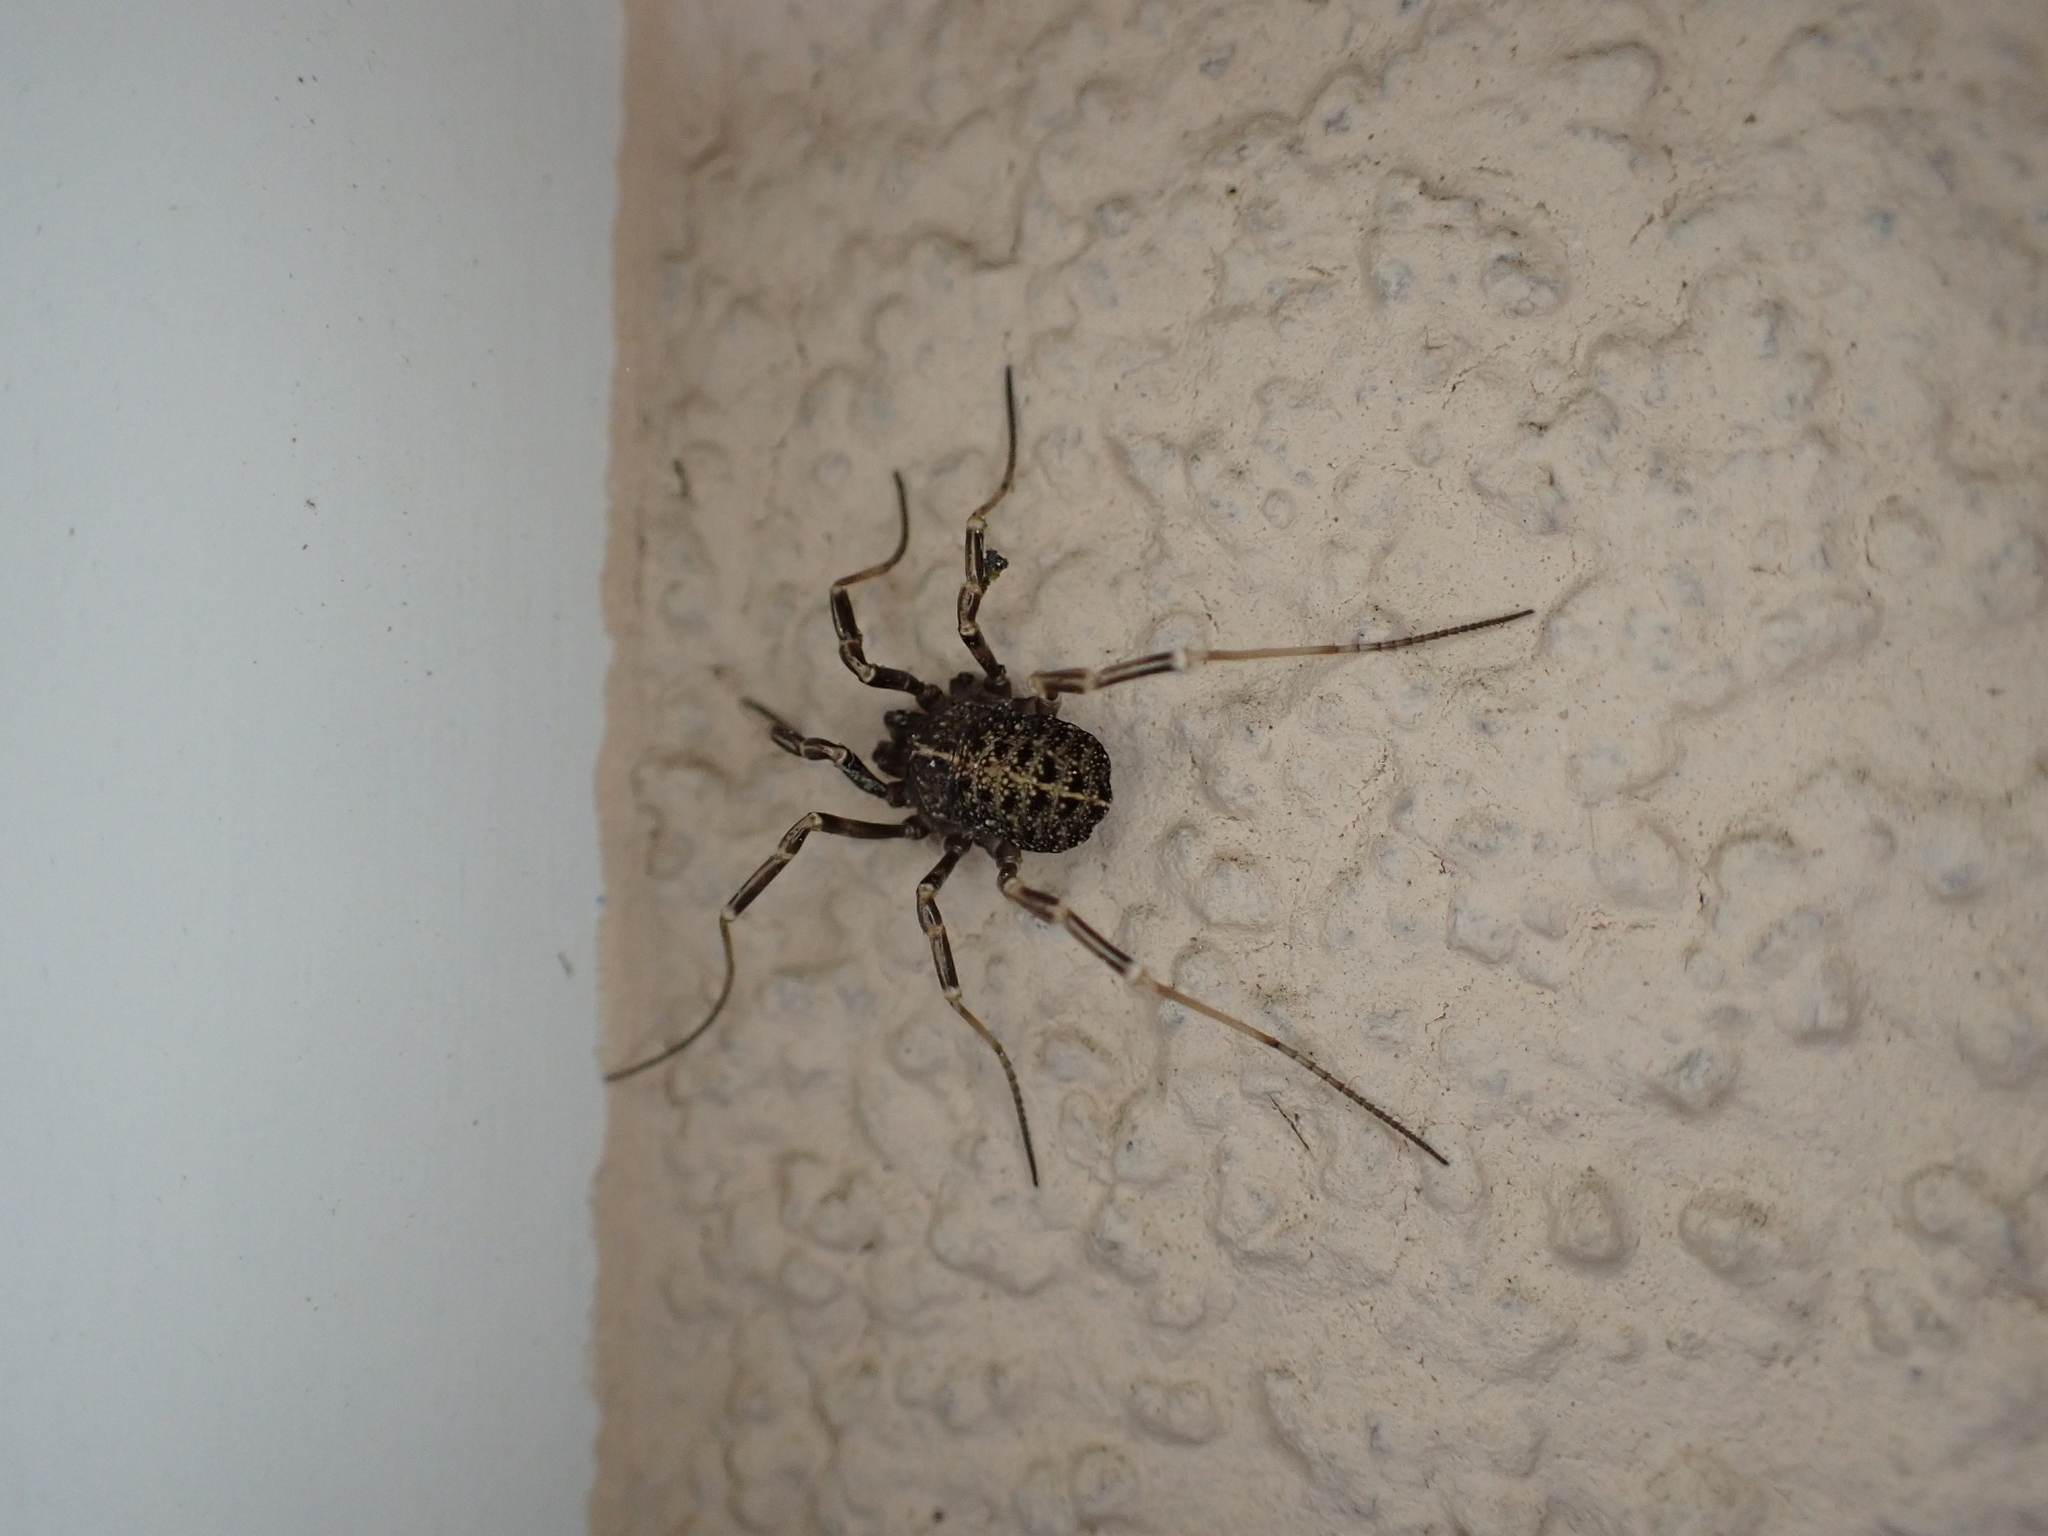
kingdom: Animalia
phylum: Arthropoda
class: Arachnida
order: Opiliones
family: Phalangiidae
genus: Egaenus
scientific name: Egaenus convexus
